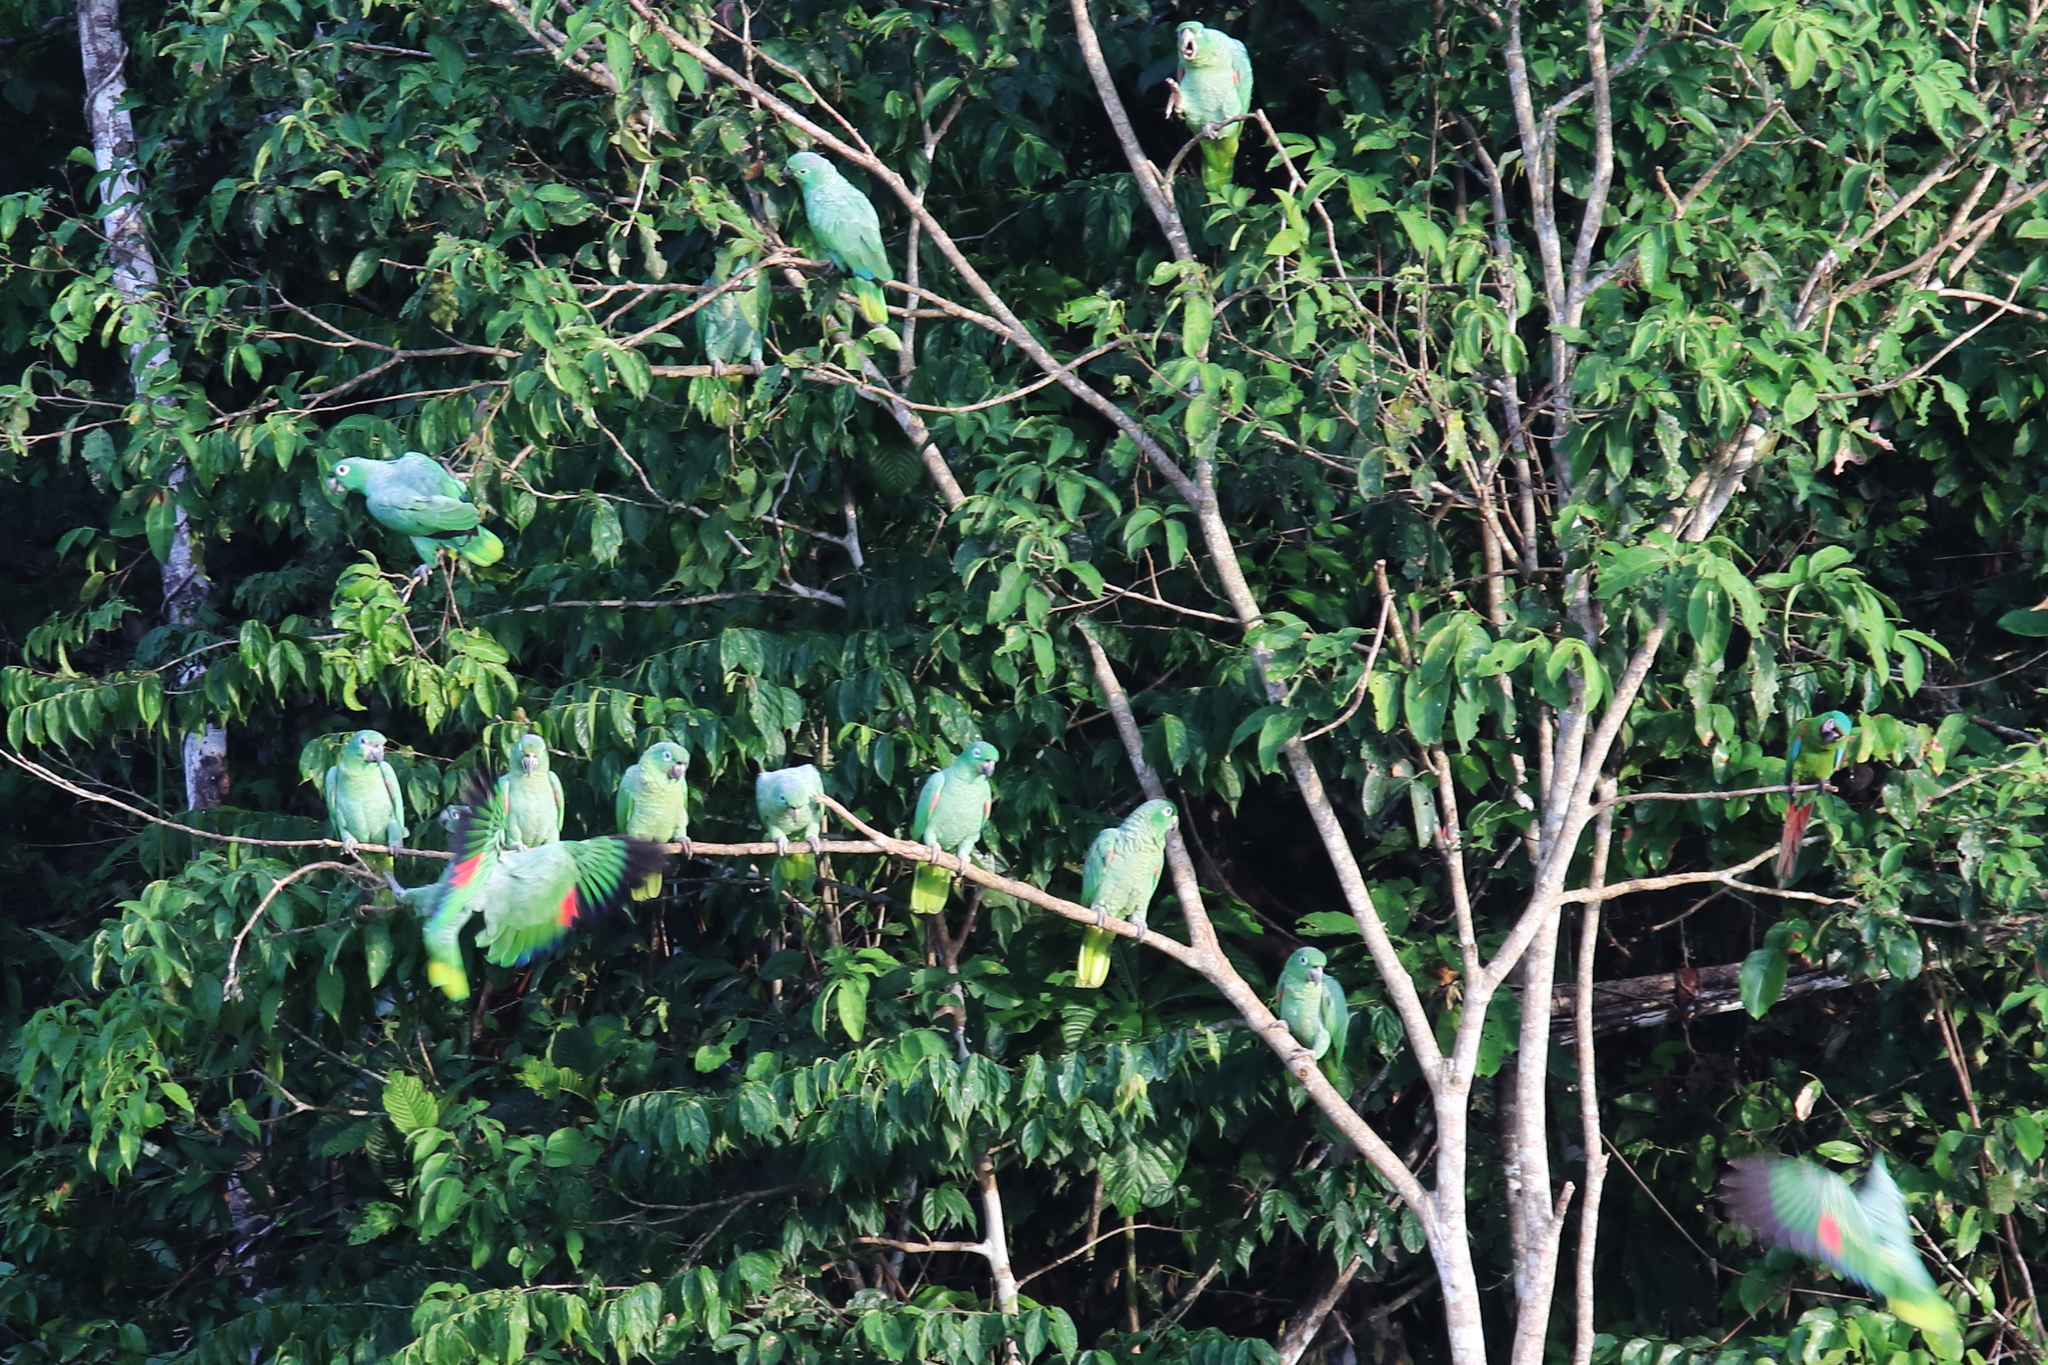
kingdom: Animalia
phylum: Chordata
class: Aves
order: Psittaciformes
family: Psittacidae
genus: Amazona
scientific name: Amazona farinosa
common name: Mealy parrot
